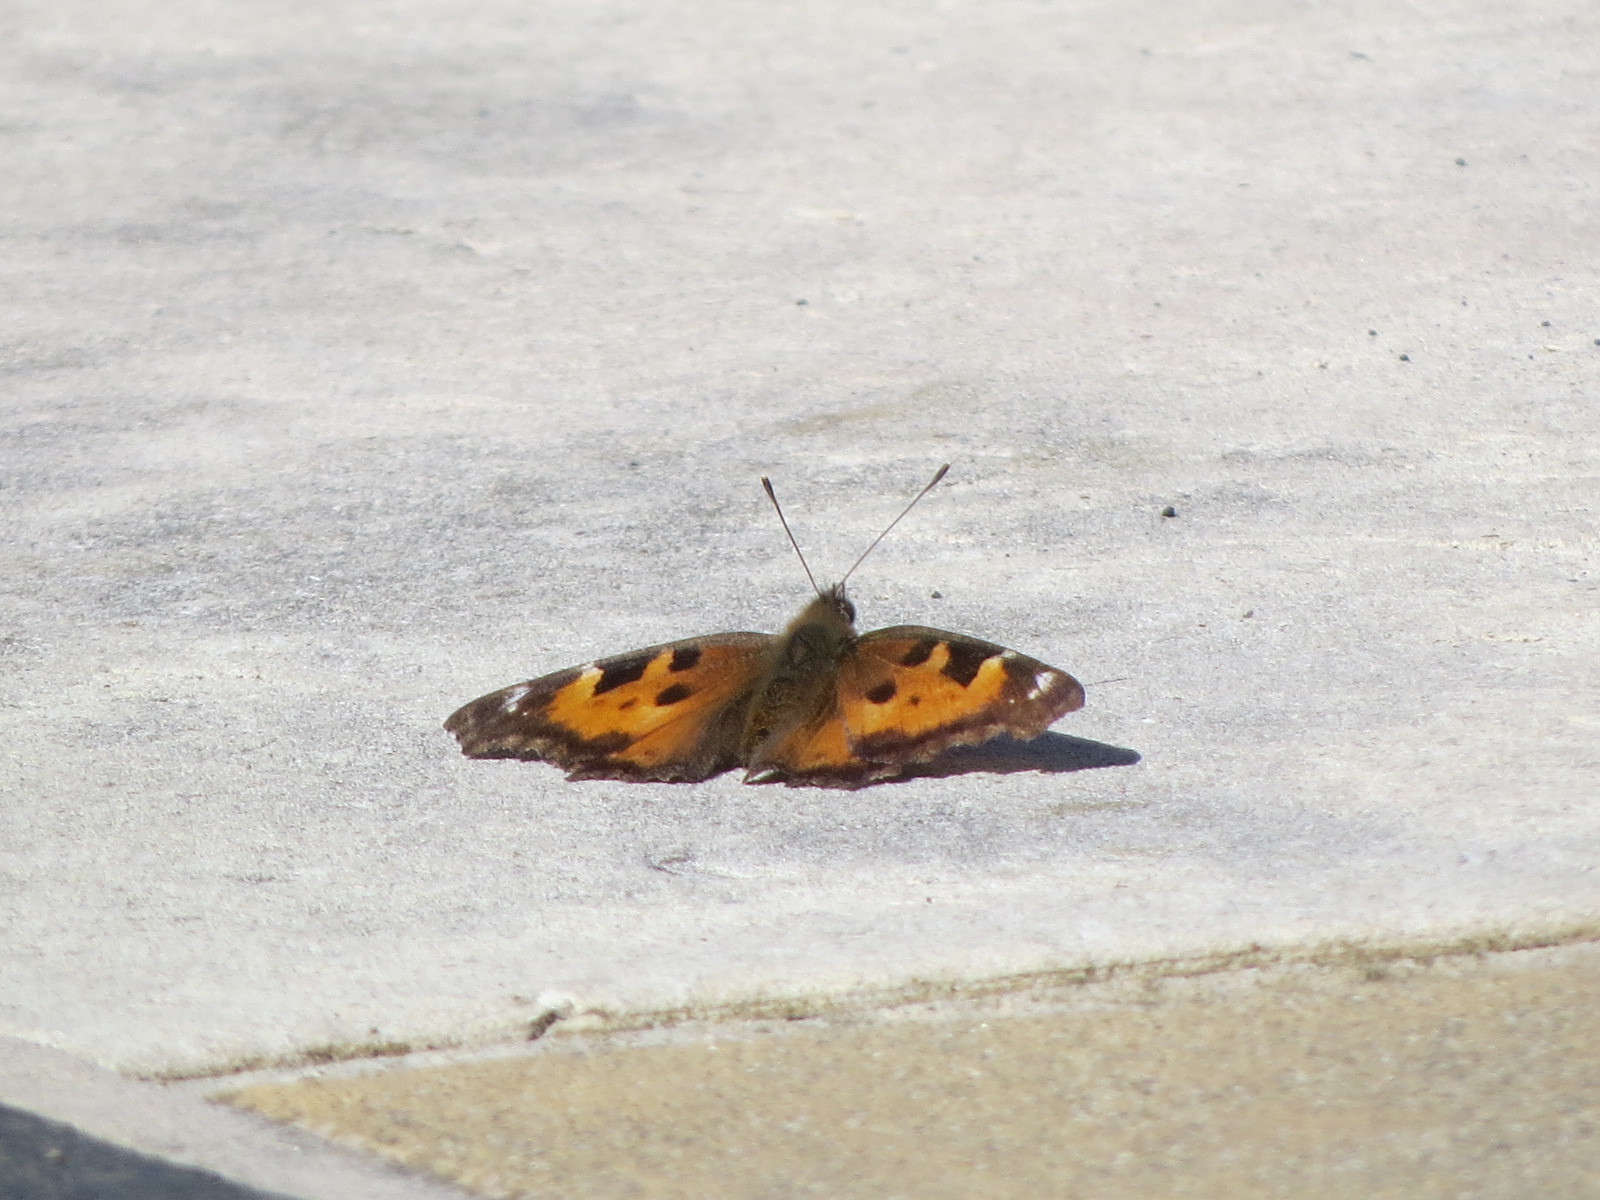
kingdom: Animalia
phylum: Arthropoda
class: Insecta
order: Lepidoptera
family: Nymphalidae
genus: Nymphalis
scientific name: Nymphalis californica
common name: California tortoiseshell
